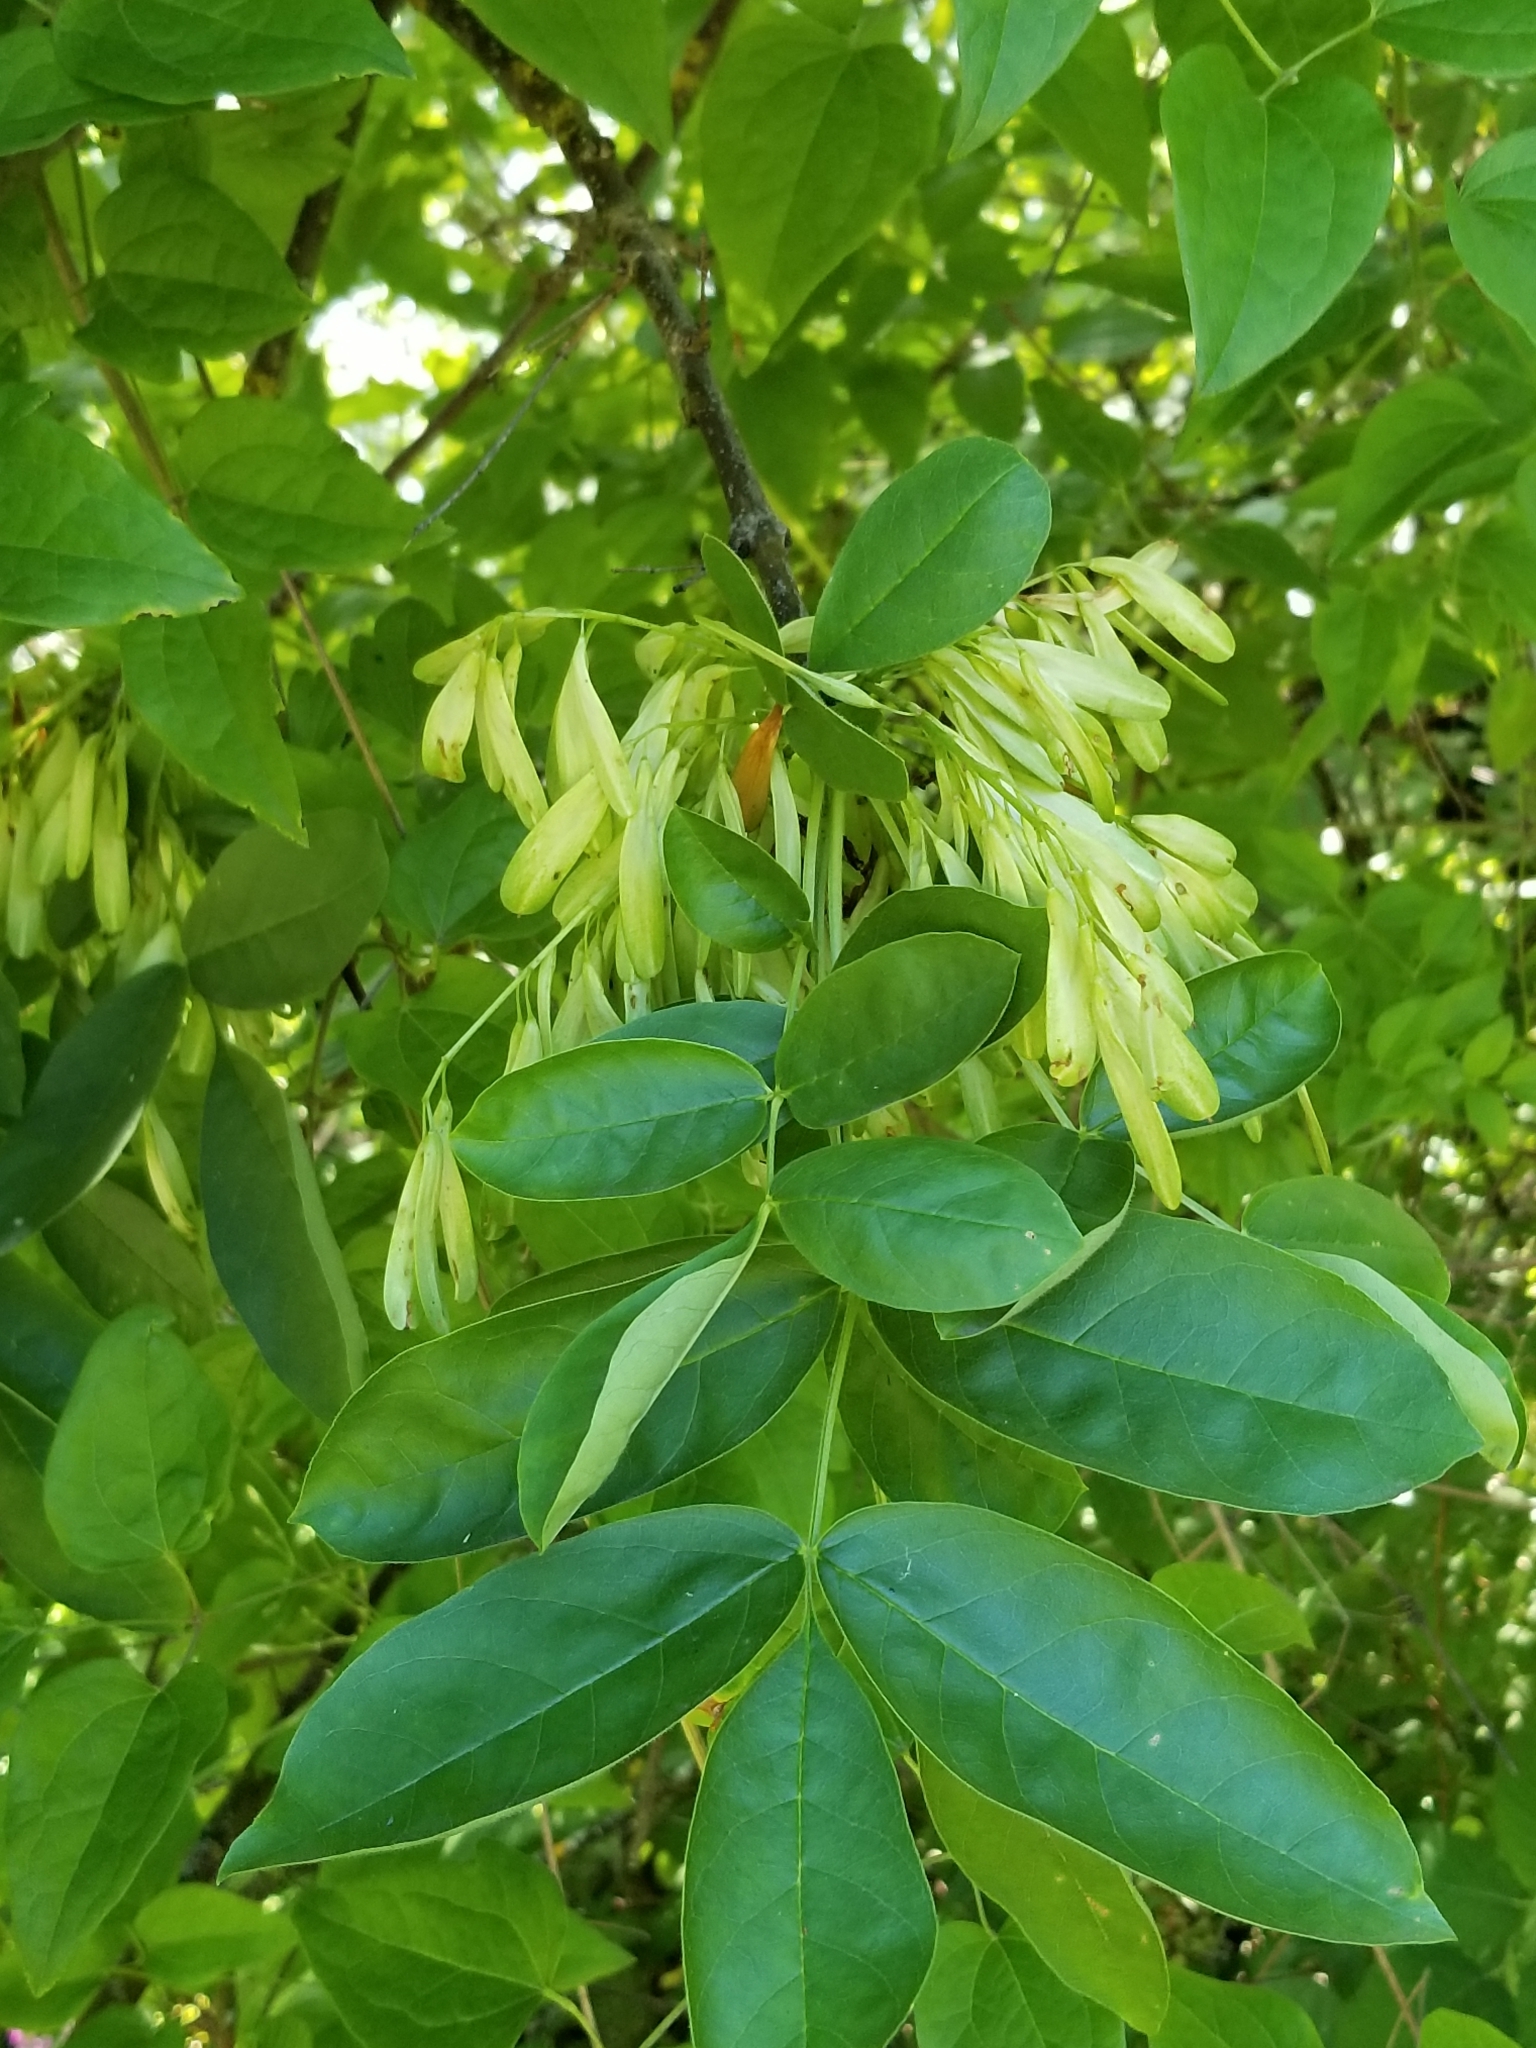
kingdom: Plantae
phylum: Tracheophyta
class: Magnoliopsida
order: Lamiales
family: Oleaceae
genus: Fraxinus
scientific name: Fraxinus latifolia
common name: Oregon ash
